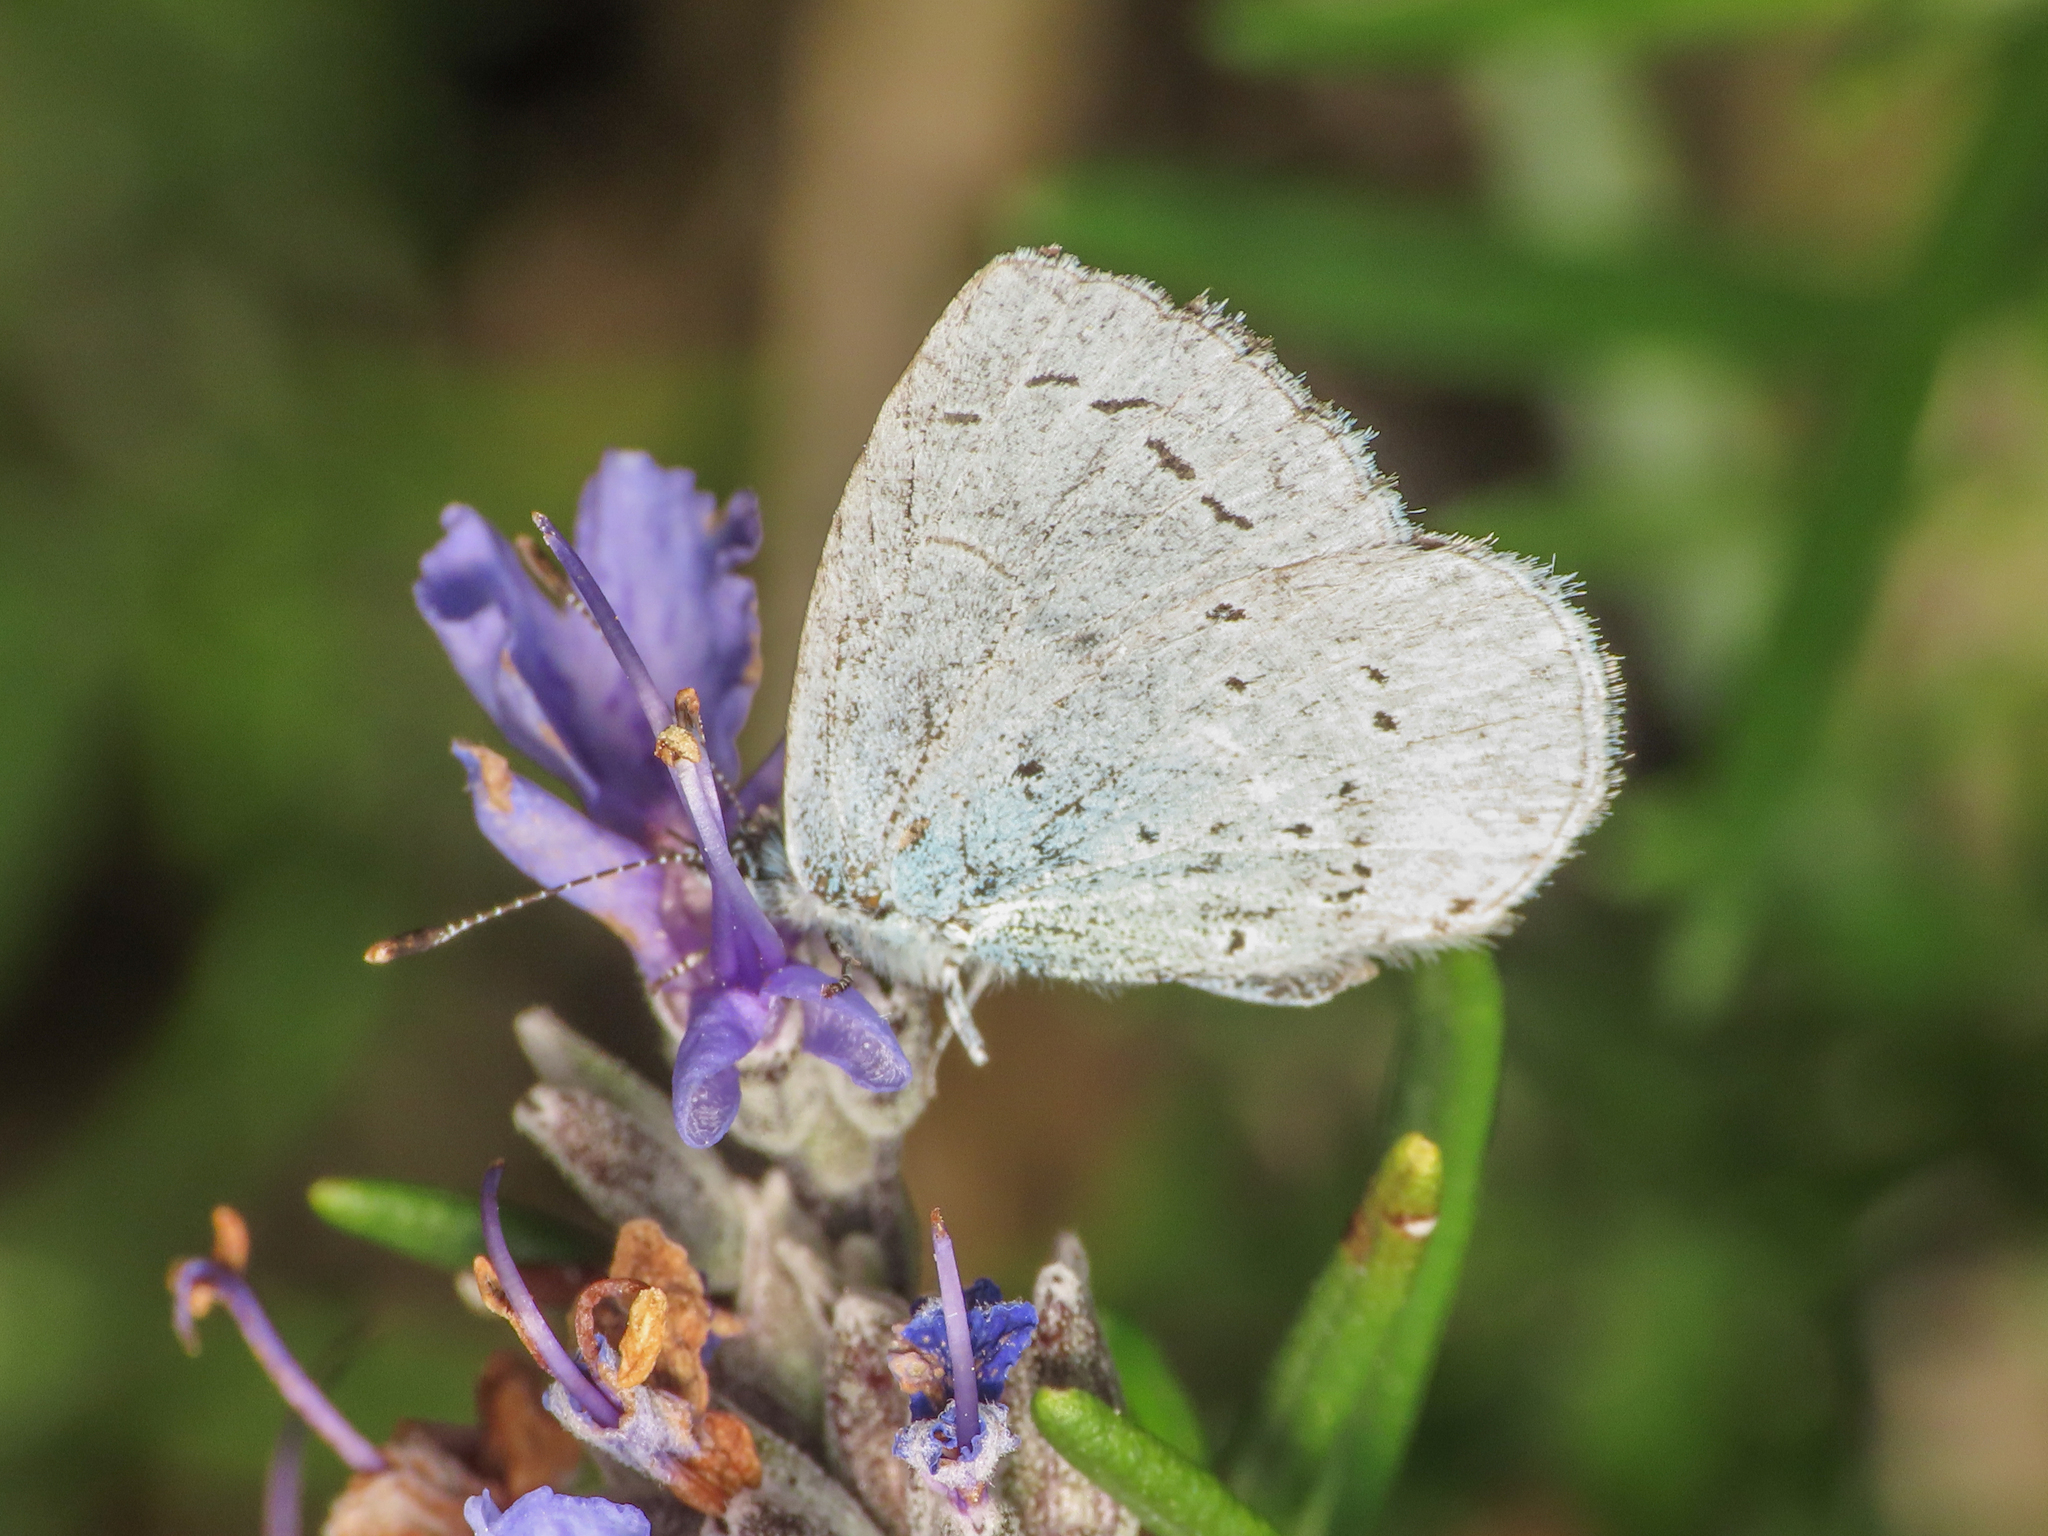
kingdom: Animalia
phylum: Arthropoda
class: Insecta
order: Lepidoptera
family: Lycaenidae
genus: Celastrina
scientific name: Celastrina argiolus
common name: Holly blue
